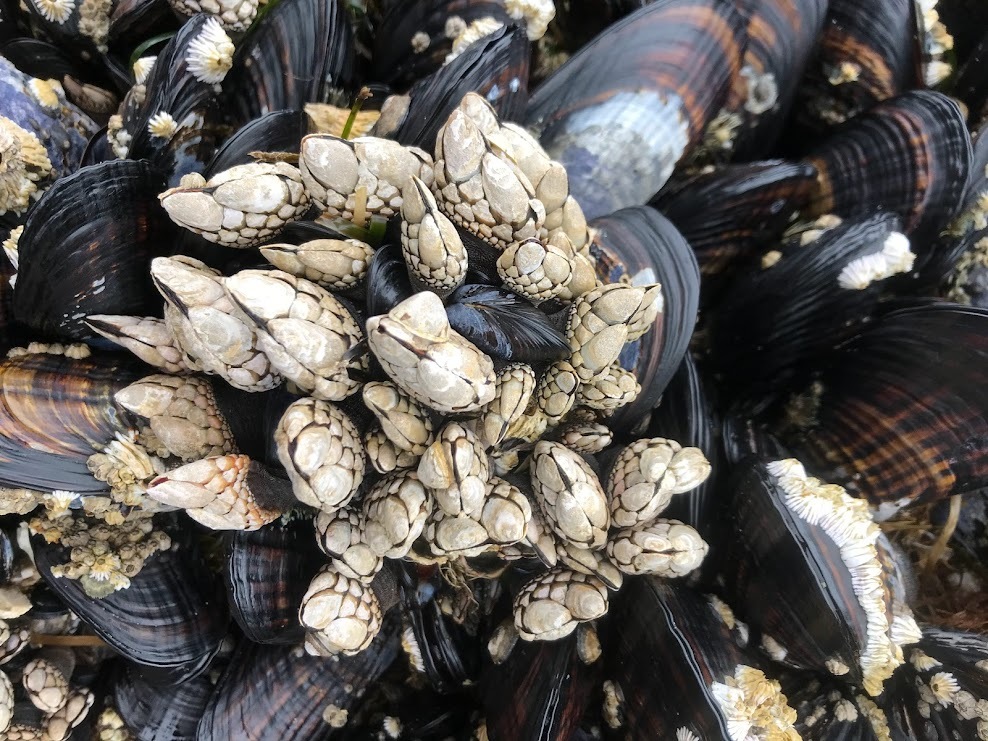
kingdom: Animalia
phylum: Arthropoda
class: Maxillopoda
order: Pedunculata
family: Pollicipedidae
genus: Pollicipes
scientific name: Pollicipes polymerus
